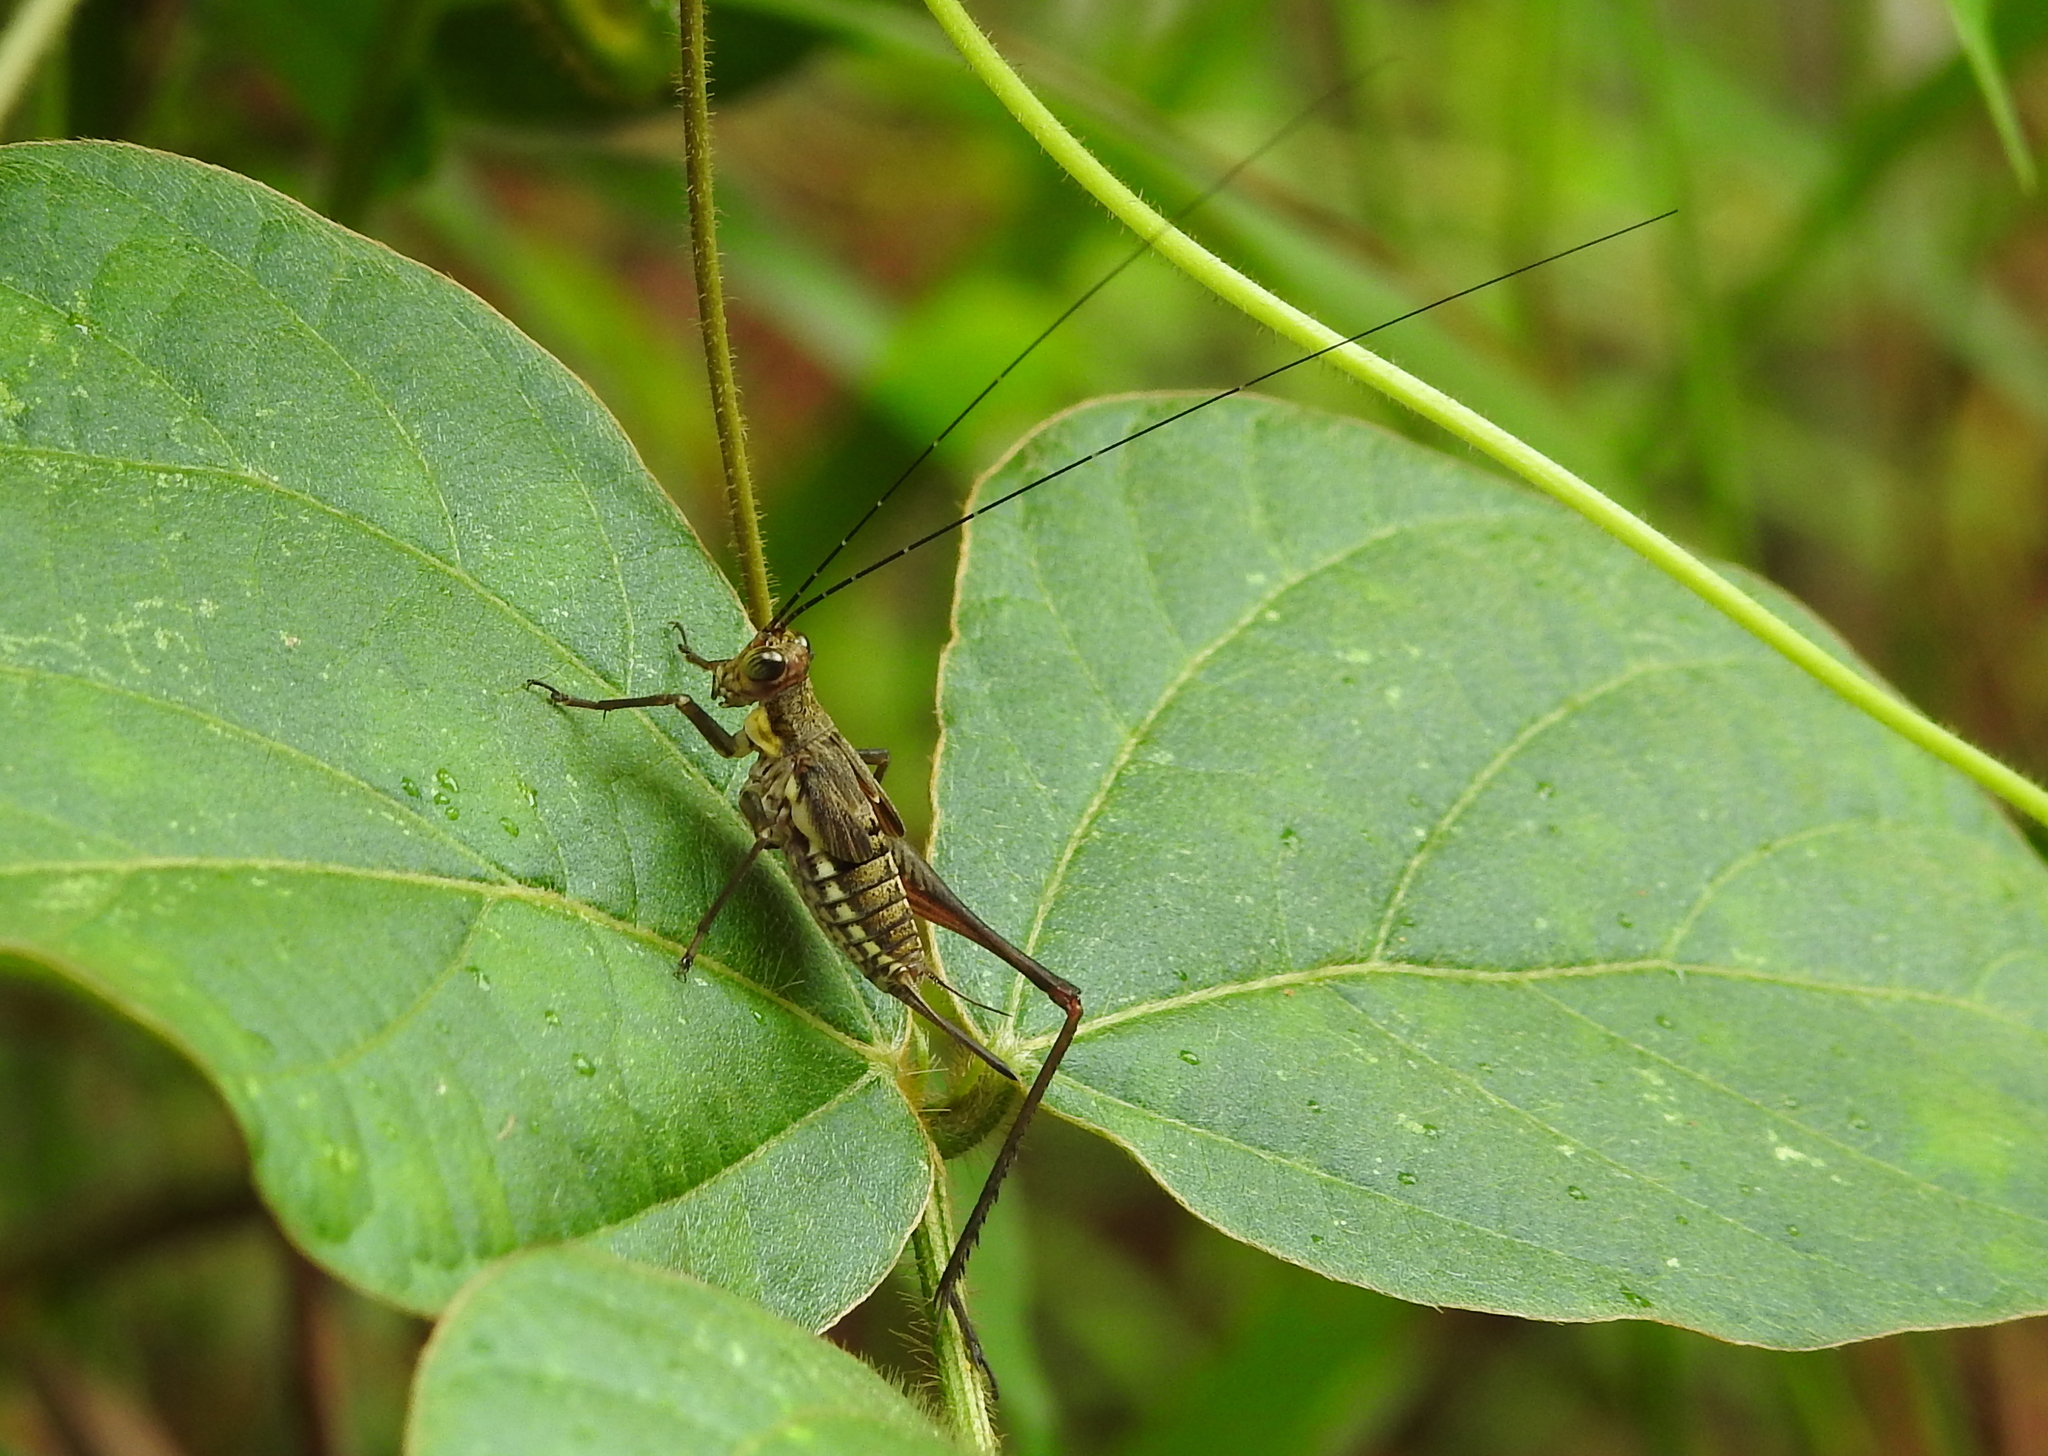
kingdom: Animalia
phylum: Arthropoda
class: Insecta
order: Orthoptera
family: Gryllidae
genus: Nisitrus
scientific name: Nisitrus malaya
